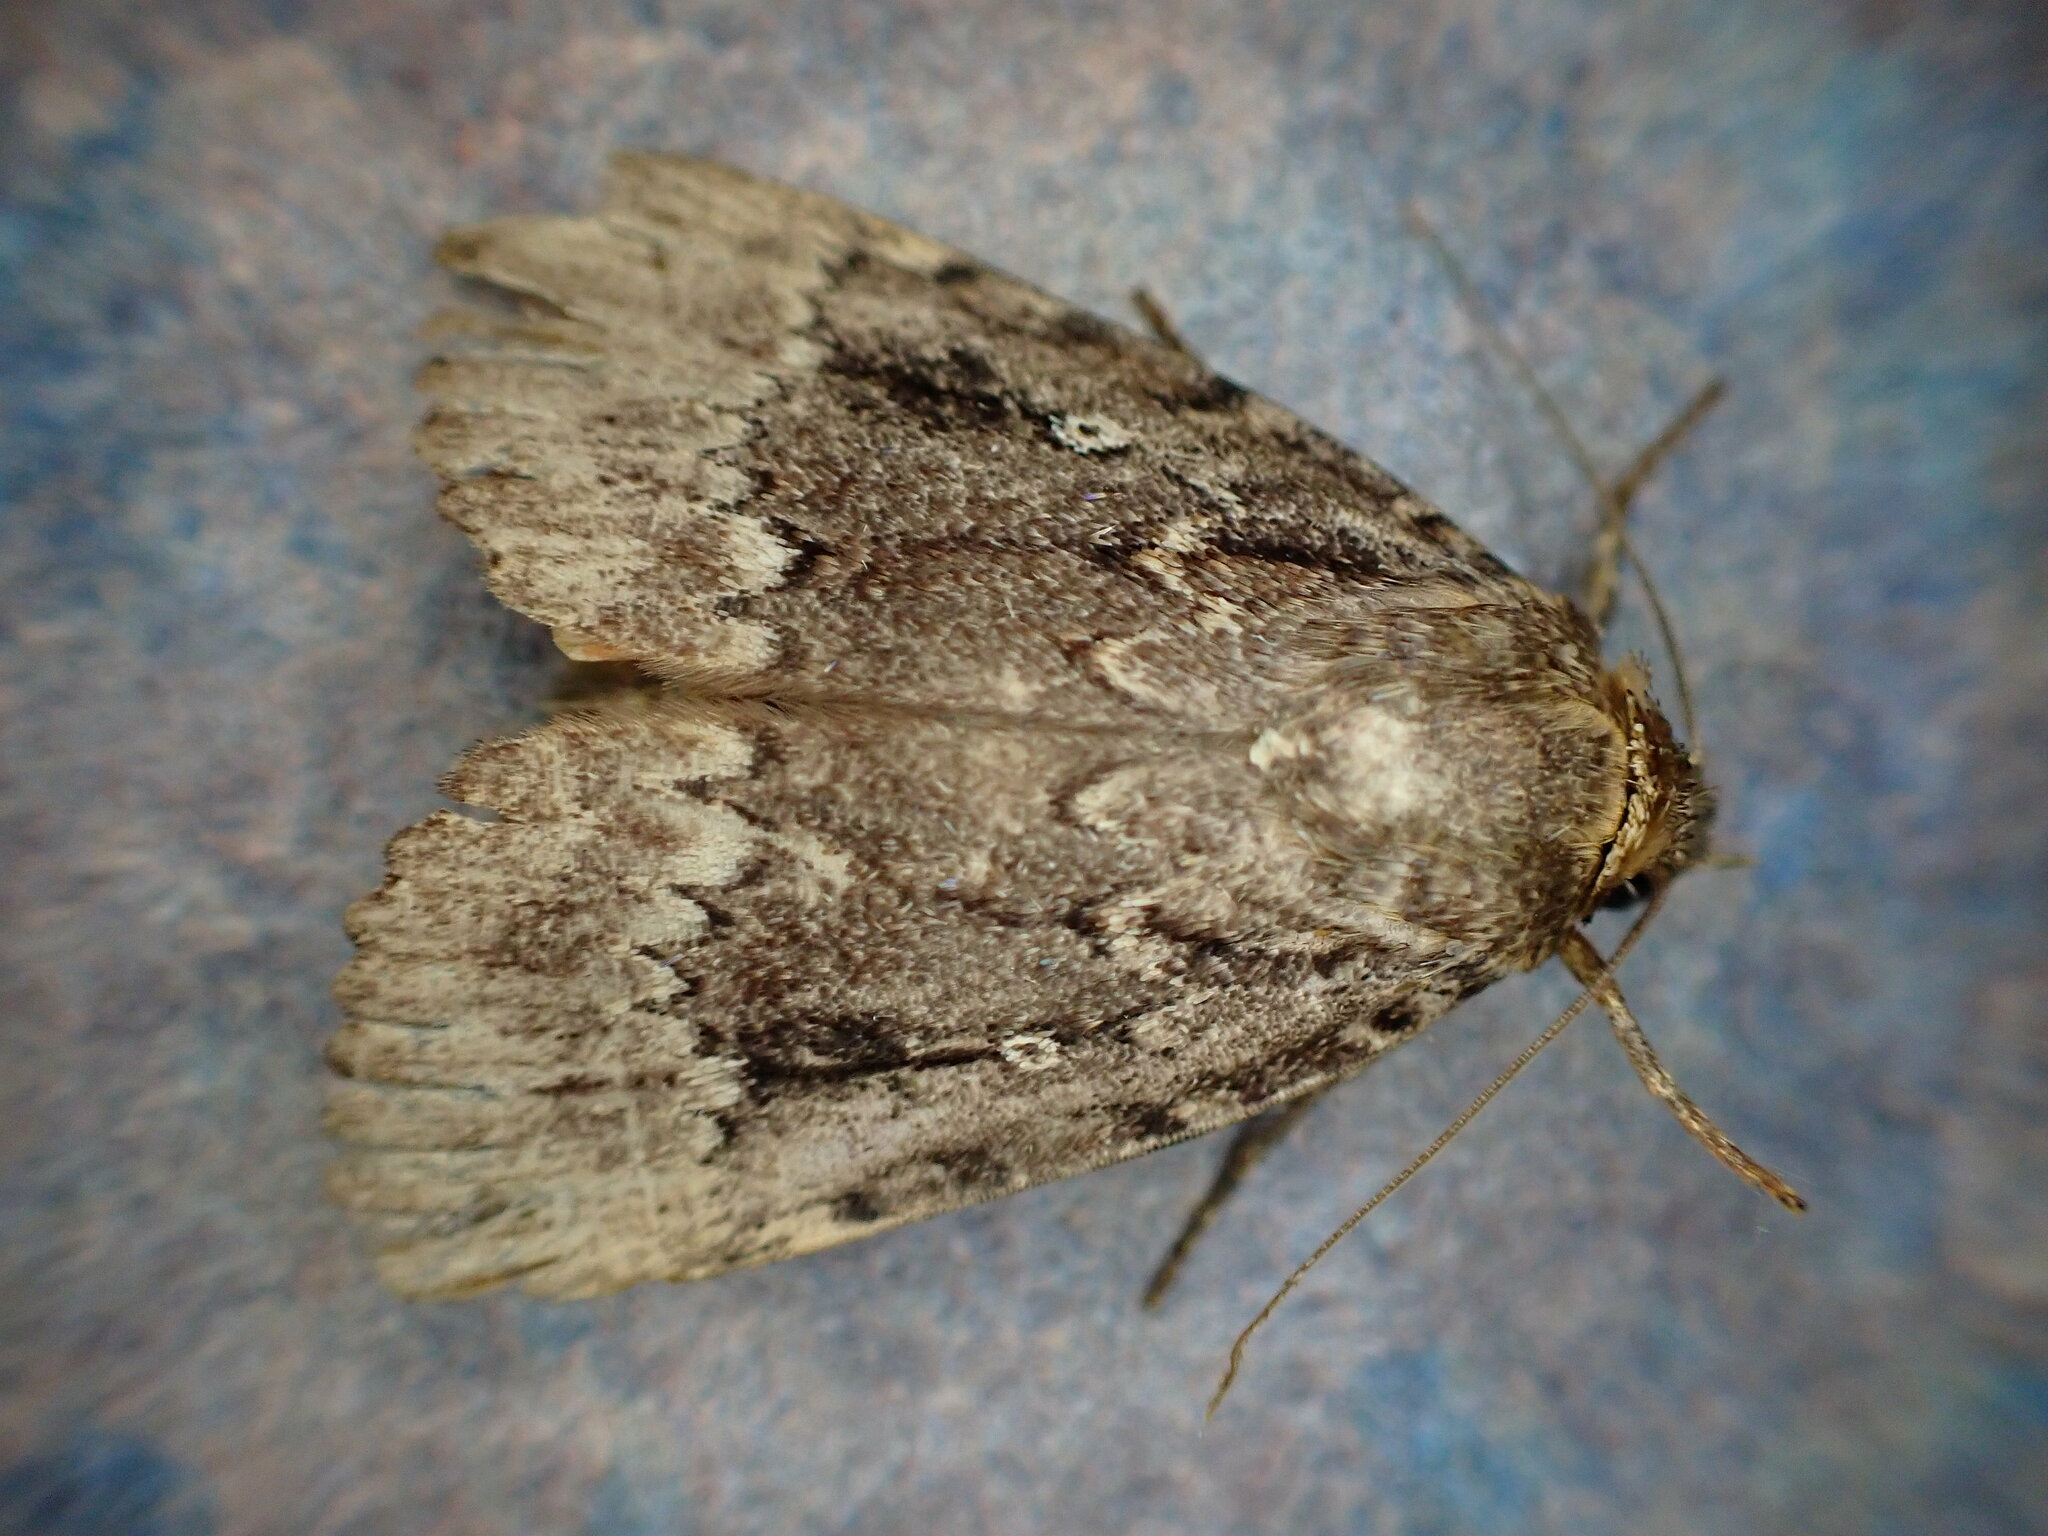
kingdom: Animalia
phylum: Arthropoda
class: Insecta
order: Lepidoptera
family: Noctuidae
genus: Amphipyra
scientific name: Amphipyra pyramidea
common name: Copper underwing
